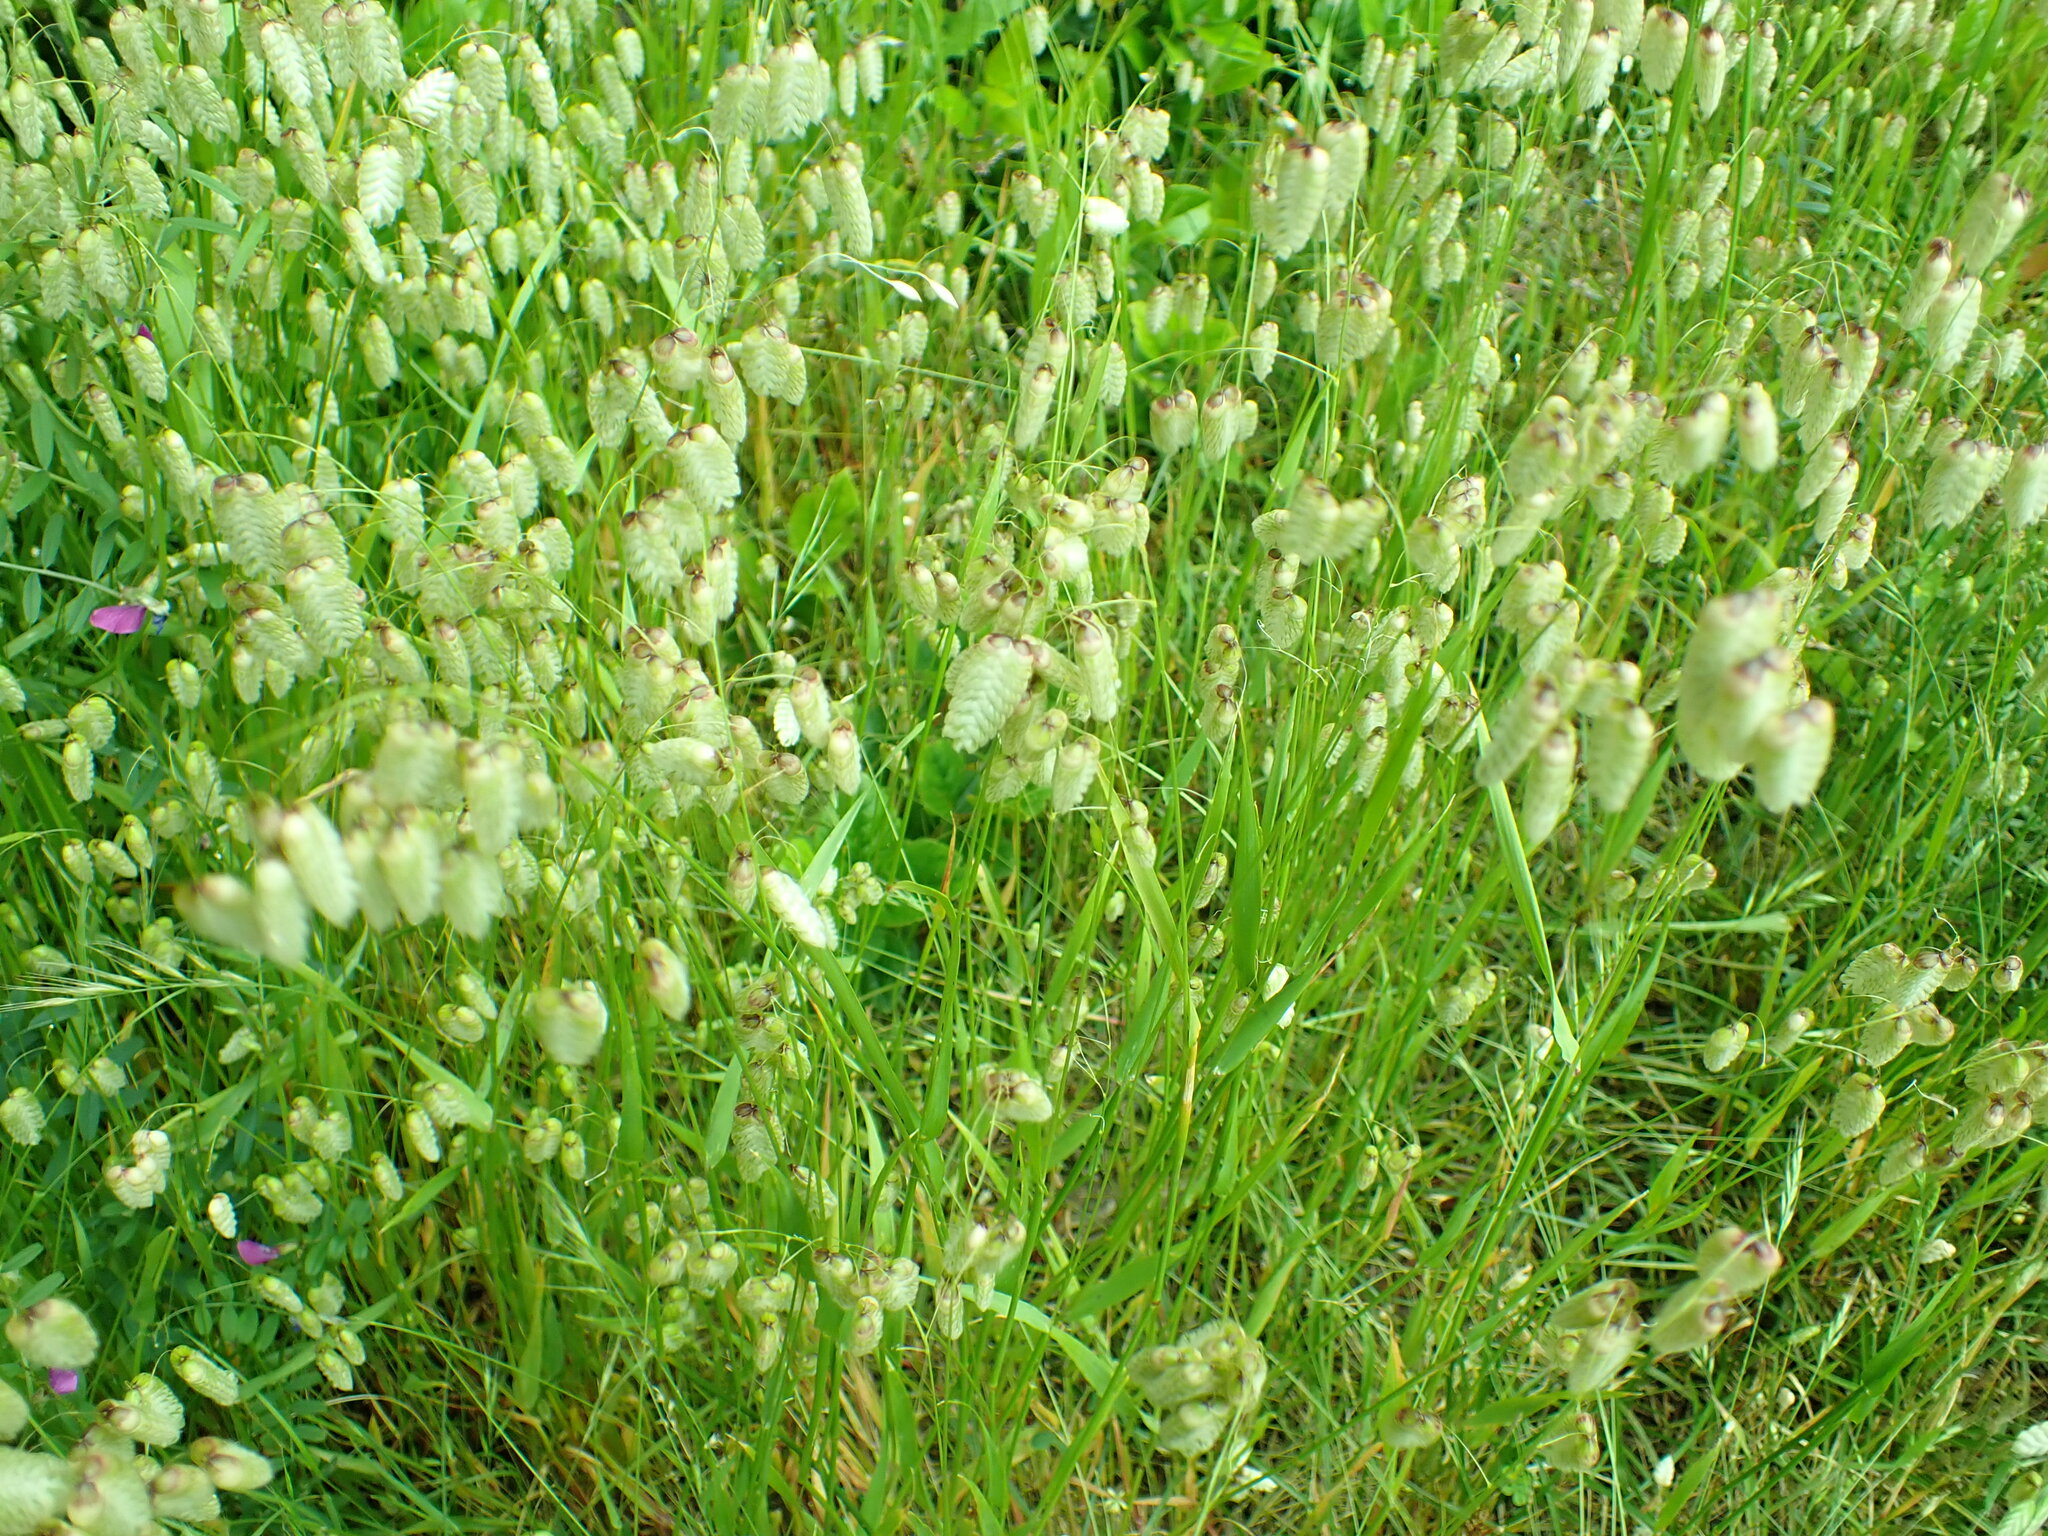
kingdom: Plantae
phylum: Tracheophyta
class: Liliopsida
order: Poales
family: Poaceae
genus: Briza
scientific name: Briza maxima
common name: Big quakinggrass
